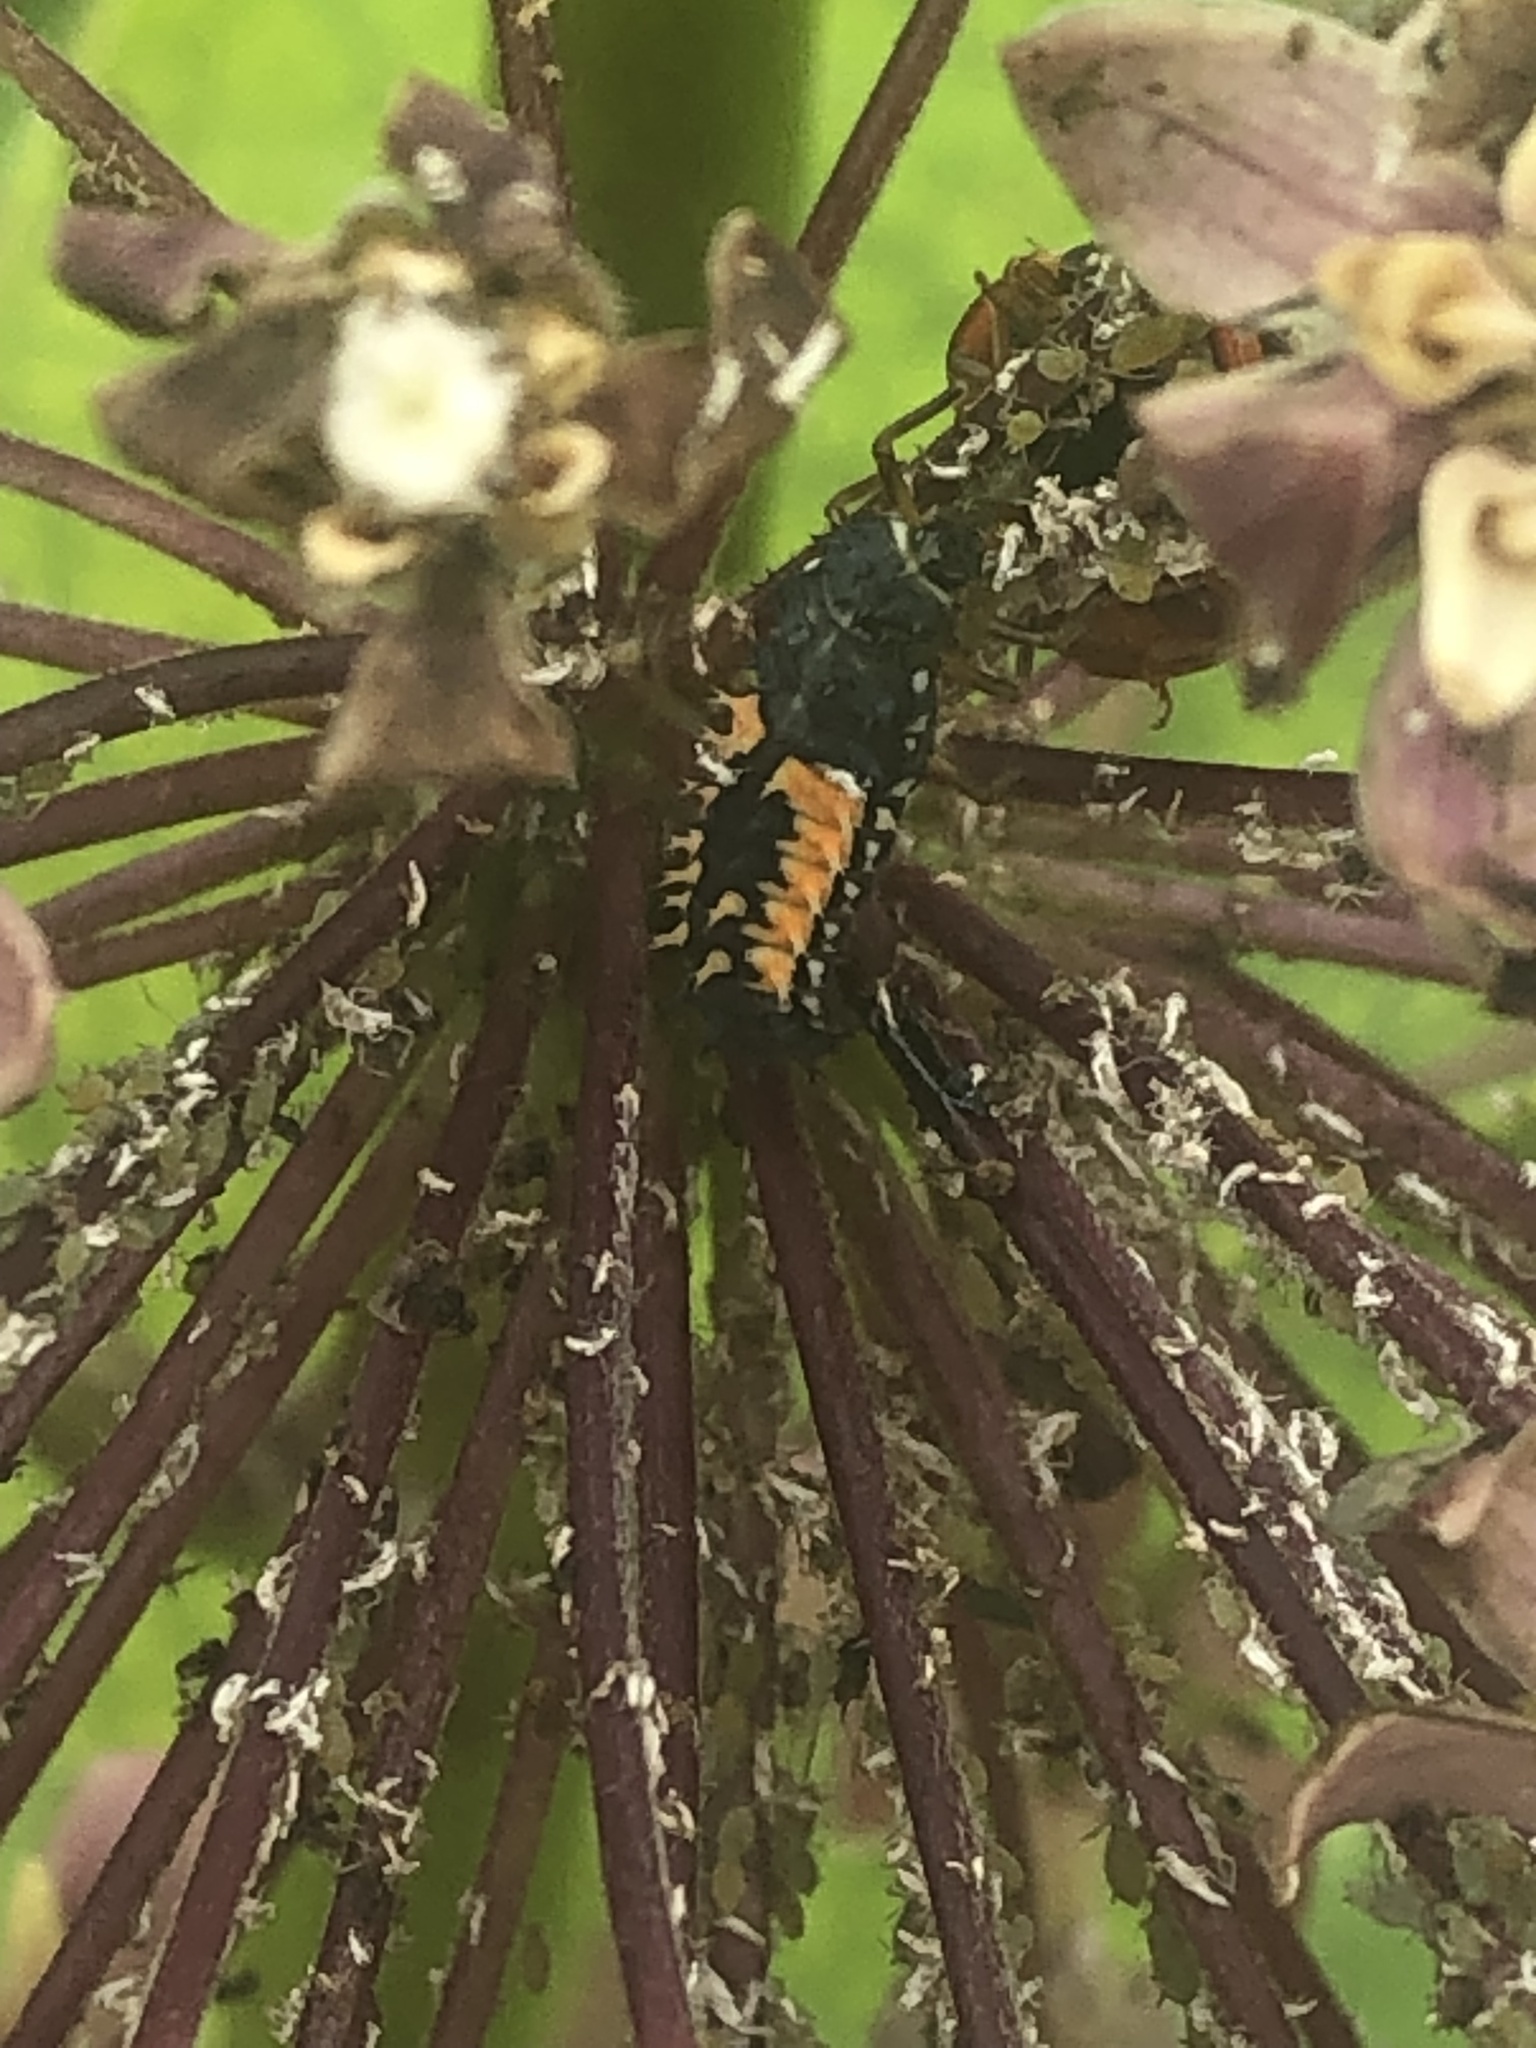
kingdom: Animalia
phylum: Arthropoda
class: Insecta
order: Coleoptera
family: Coccinellidae
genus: Harmonia
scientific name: Harmonia axyridis
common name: Harlequin ladybird
